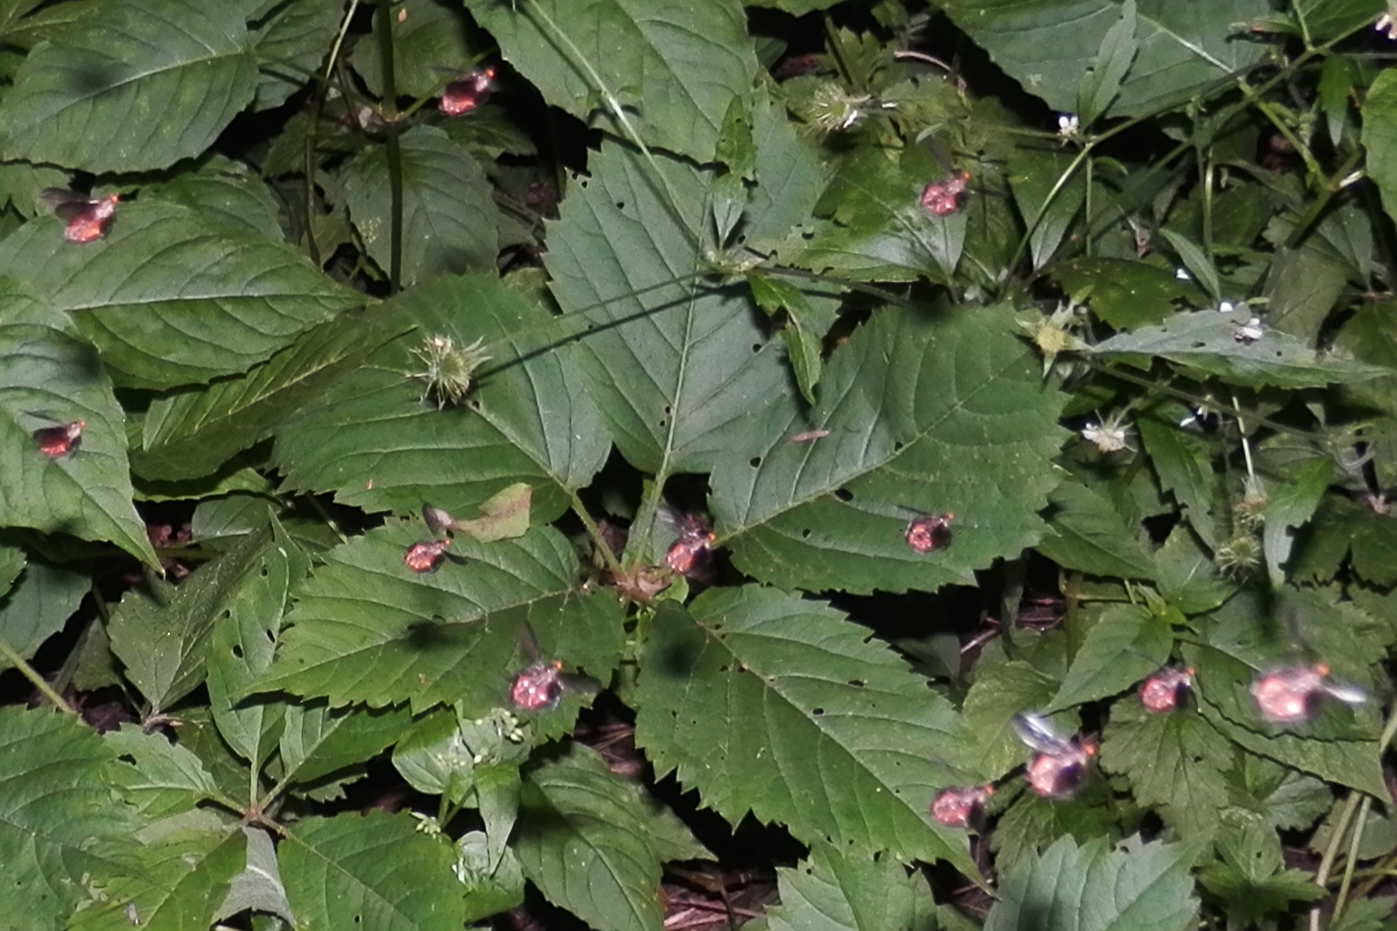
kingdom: Plantae
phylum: Tracheophyta
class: Magnoliopsida
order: Vitales
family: Vitaceae
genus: Parthenocissus
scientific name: Parthenocissus inserta
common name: False virginia-creeper
